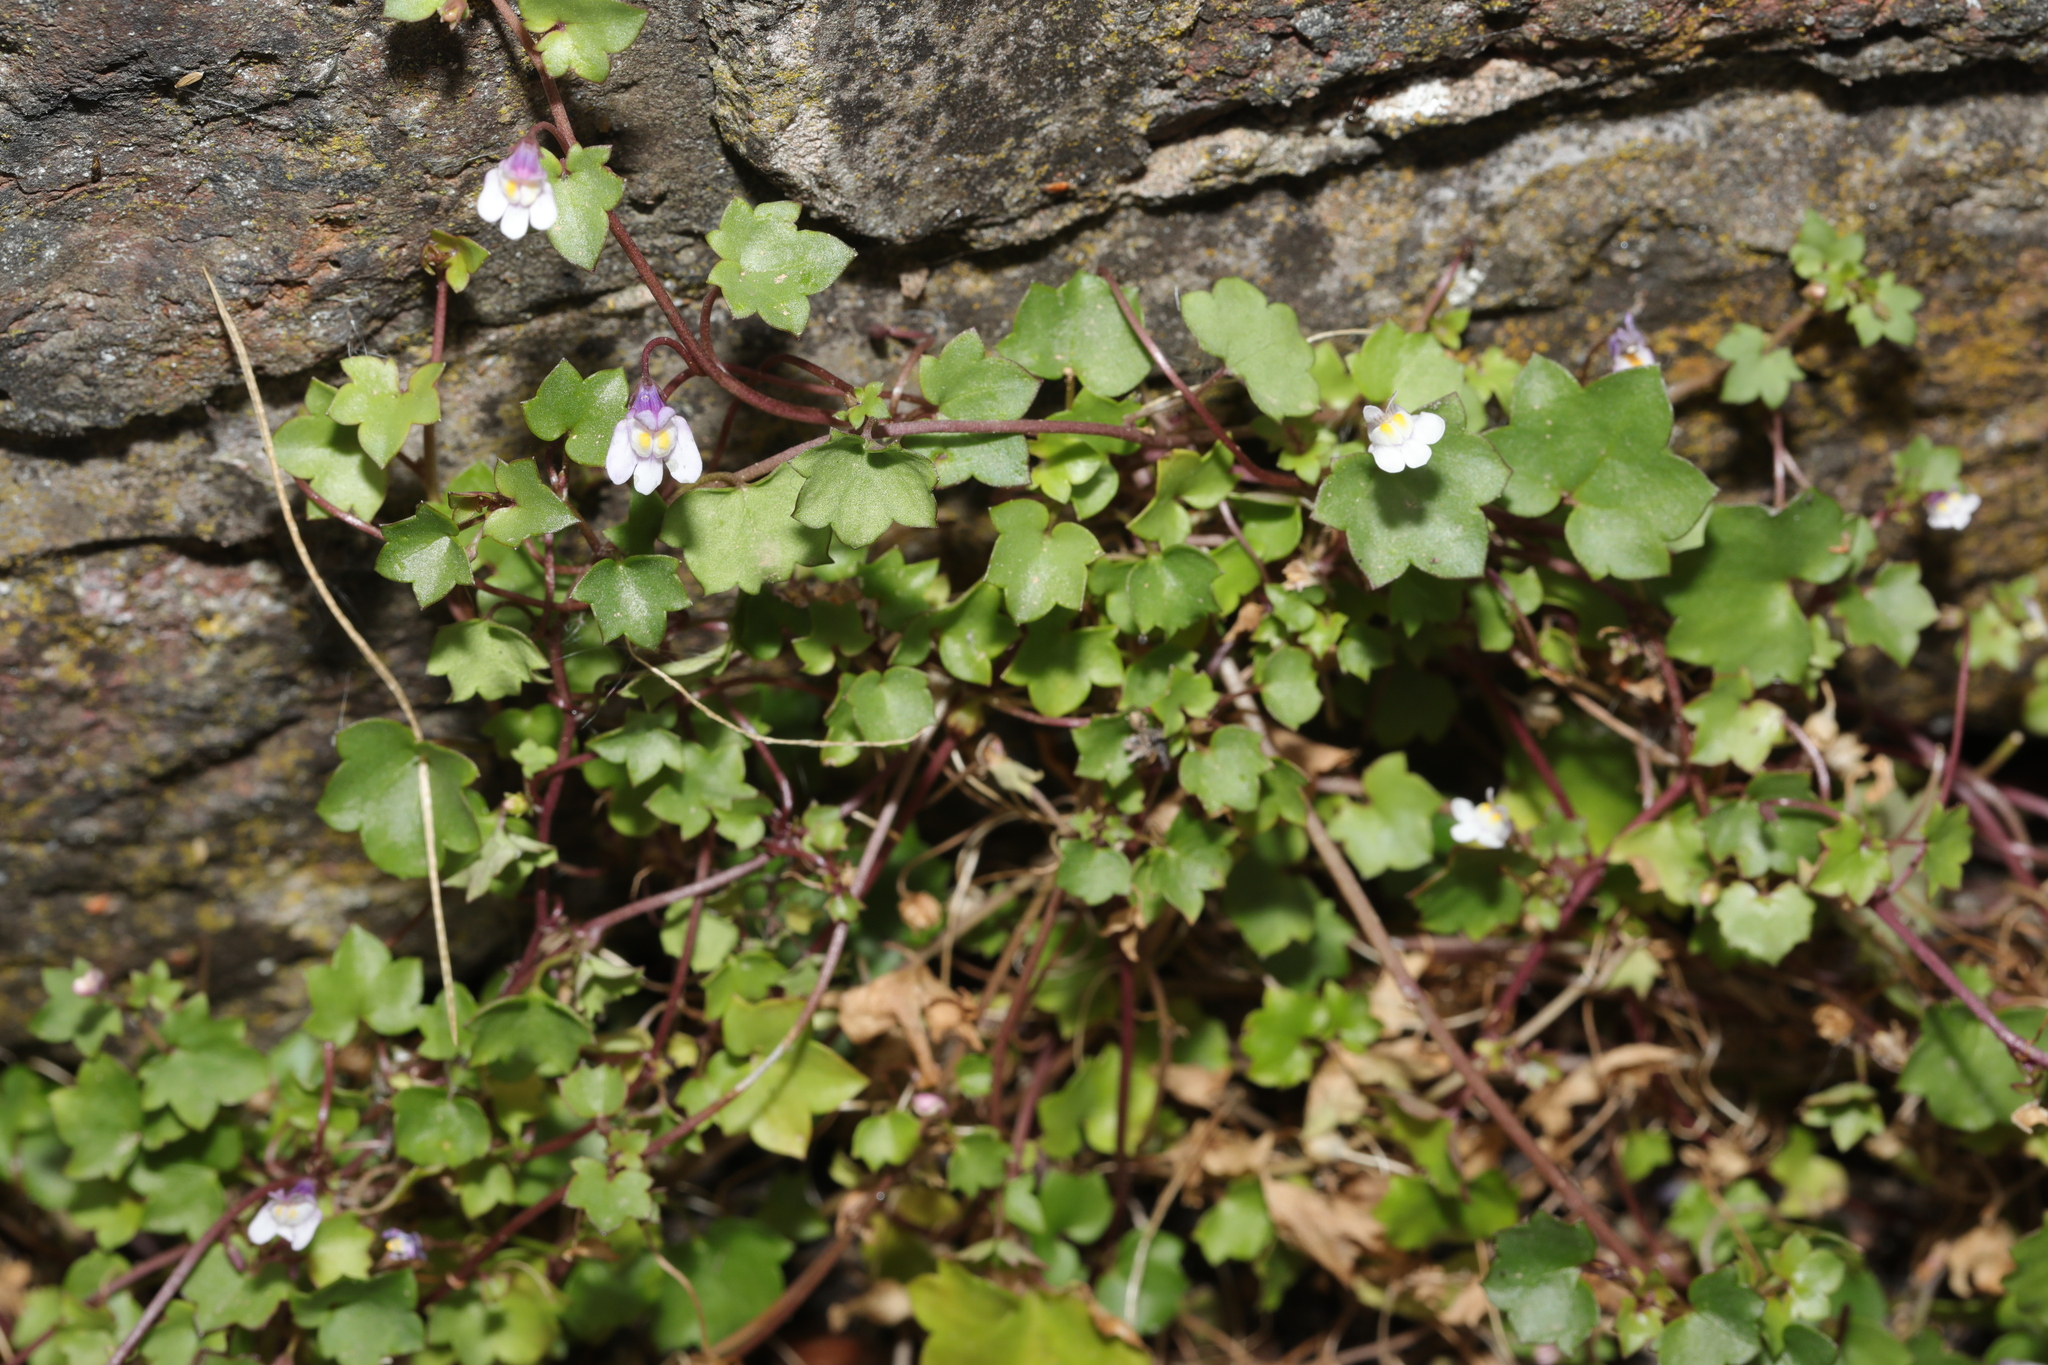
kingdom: Plantae
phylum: Tracheophyta
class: Magnoliopsida
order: Lamiales
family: Plantaginaceae
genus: Cymbalaria
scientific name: Cymbalaria muralis
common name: Ivy-leaved toadflax
